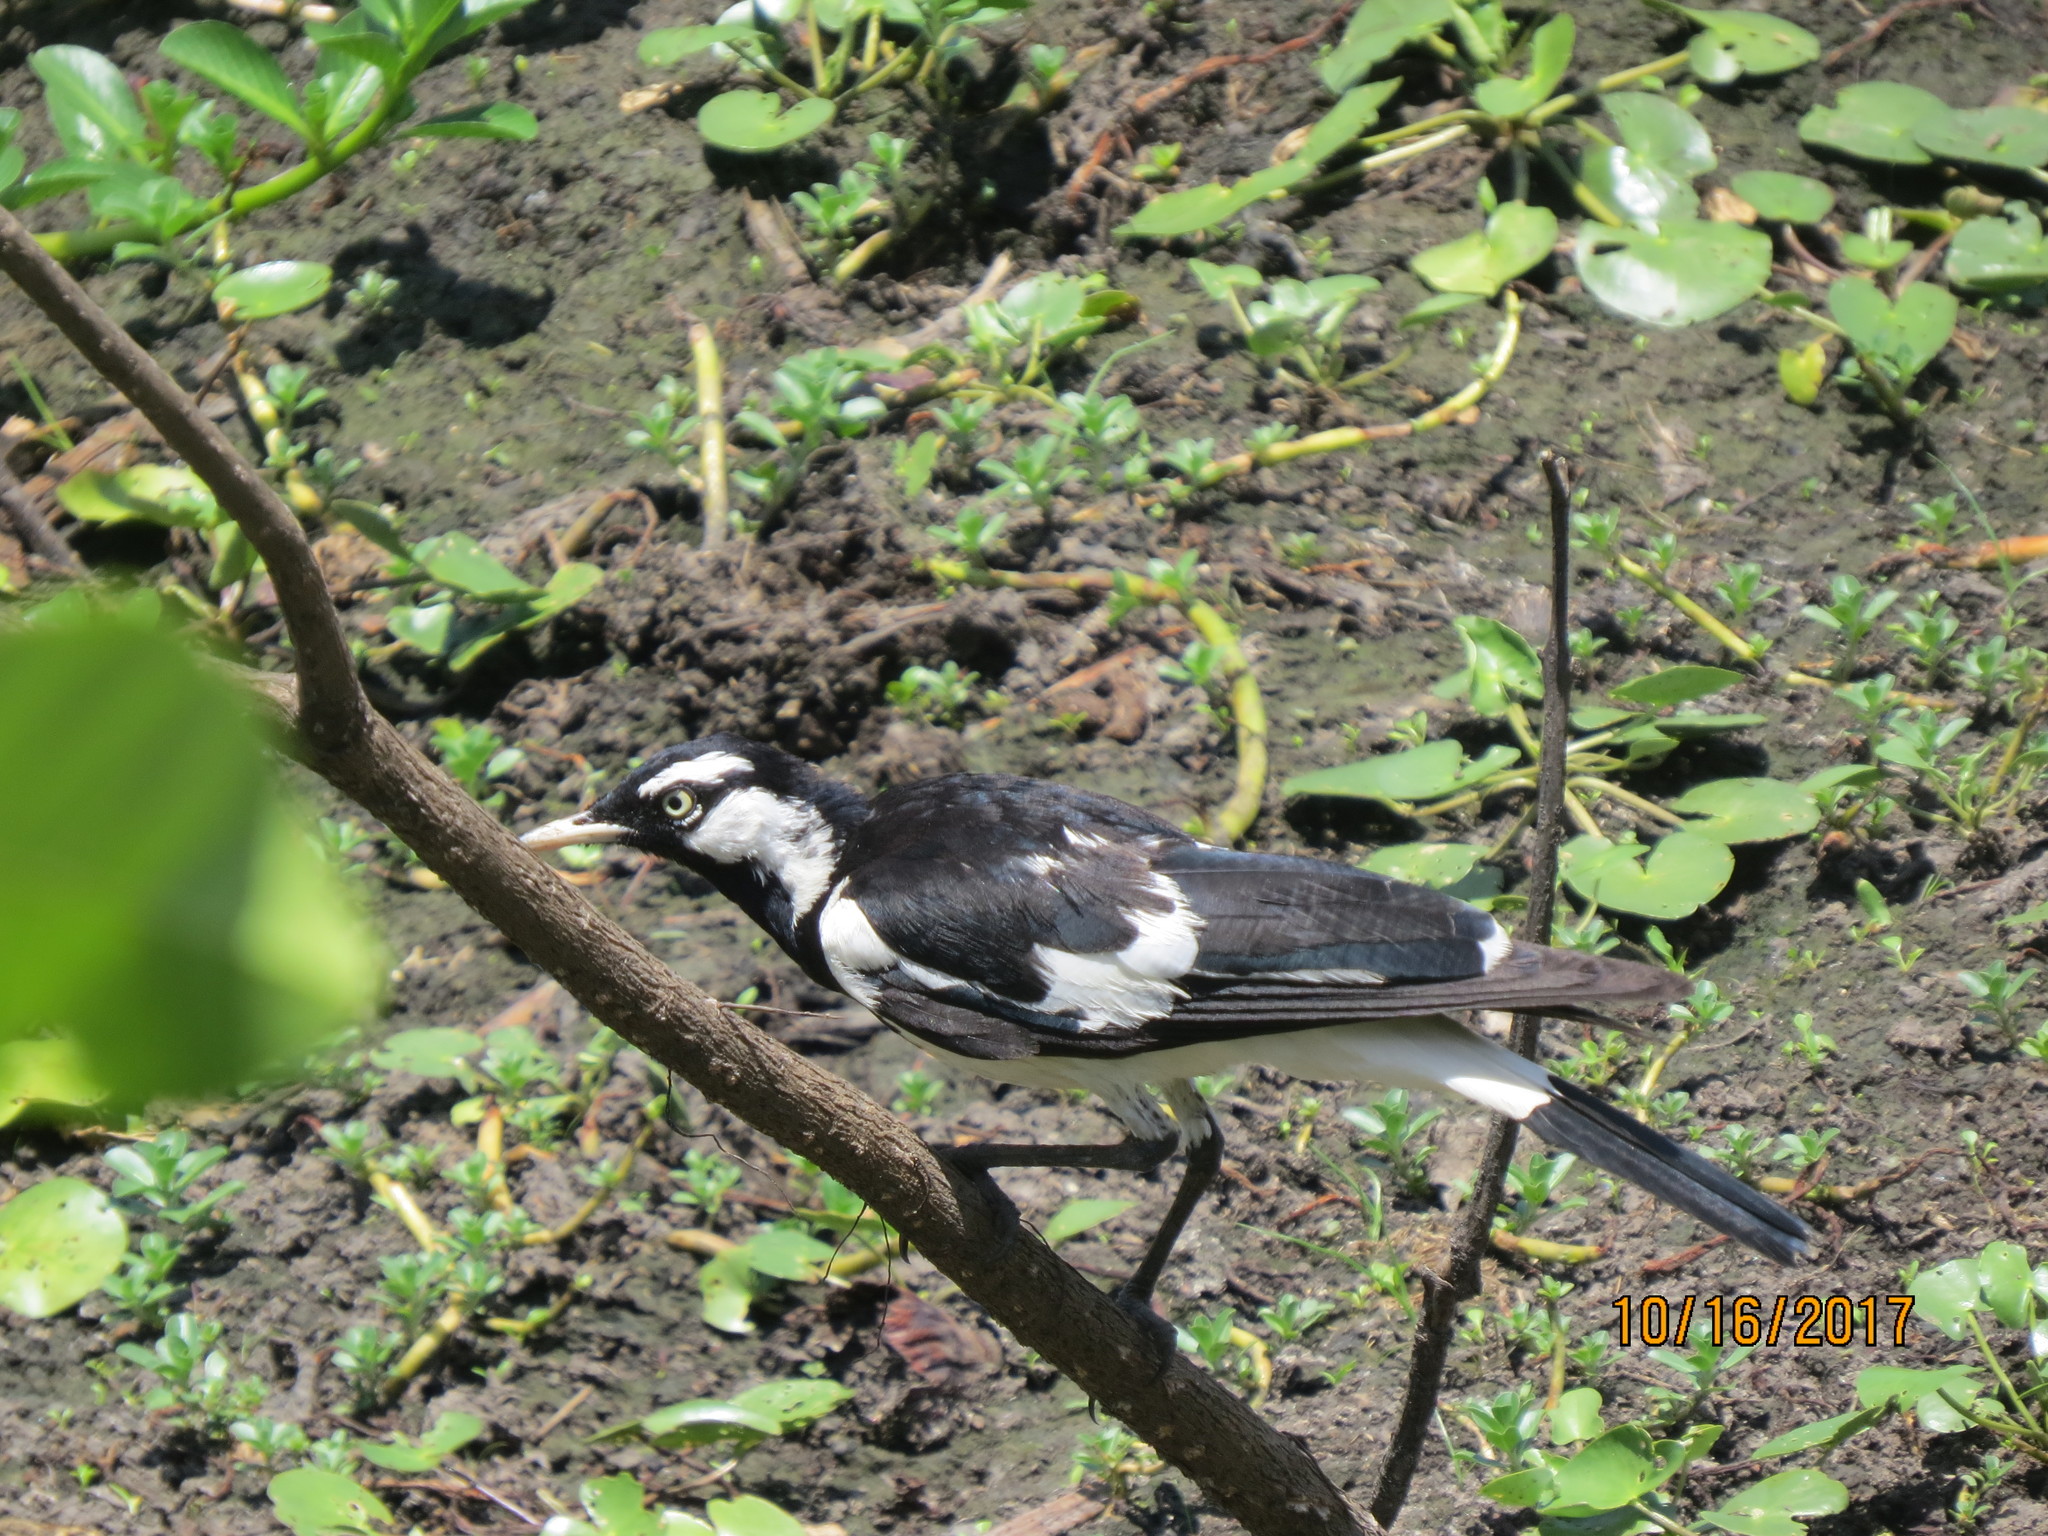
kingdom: Animalia
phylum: Chordata
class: Aves
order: Passeriformes
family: Monarchidae
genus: Grallina
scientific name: Grallina cyanoleuca
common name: Magpie-lark
